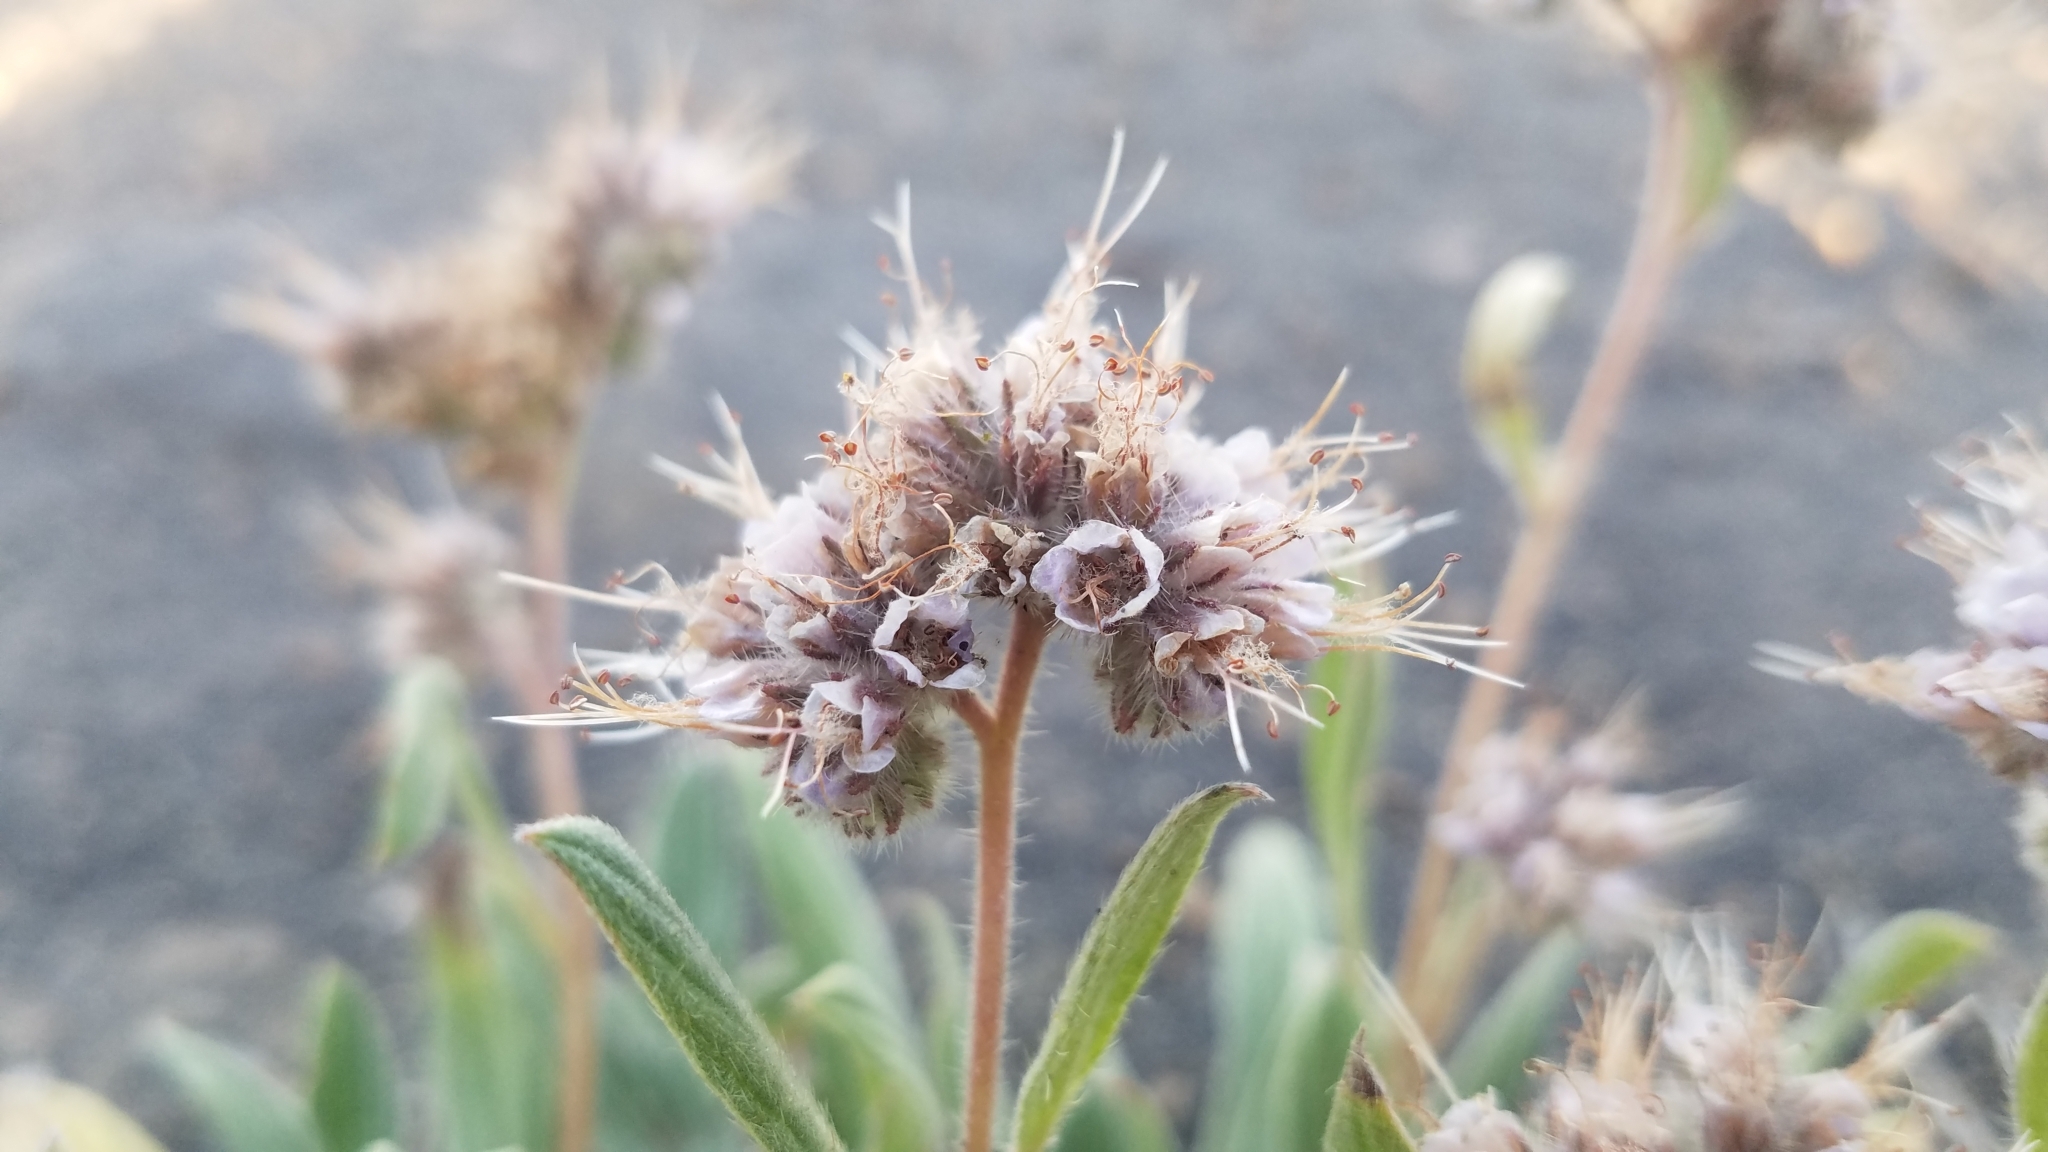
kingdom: Plantae
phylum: Tracheophyta
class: Magnoliopsida
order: Boraginales
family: Hydrophyllaceae
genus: Phacelia
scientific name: Phacelia hastata
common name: Silver-leaved phacelia
